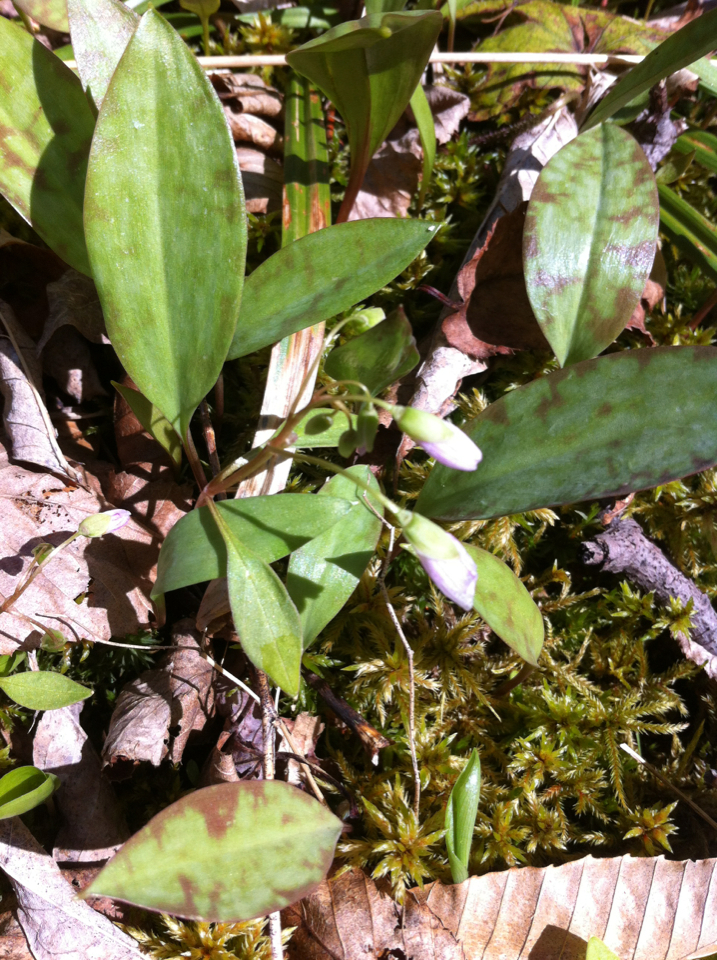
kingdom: Plantae
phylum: Tracheophyta
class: Magnoliopsida
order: Caryophyllales
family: Montiaceae
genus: Claytonia
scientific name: Claytonia caroliniana
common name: Carolina spring beauty
